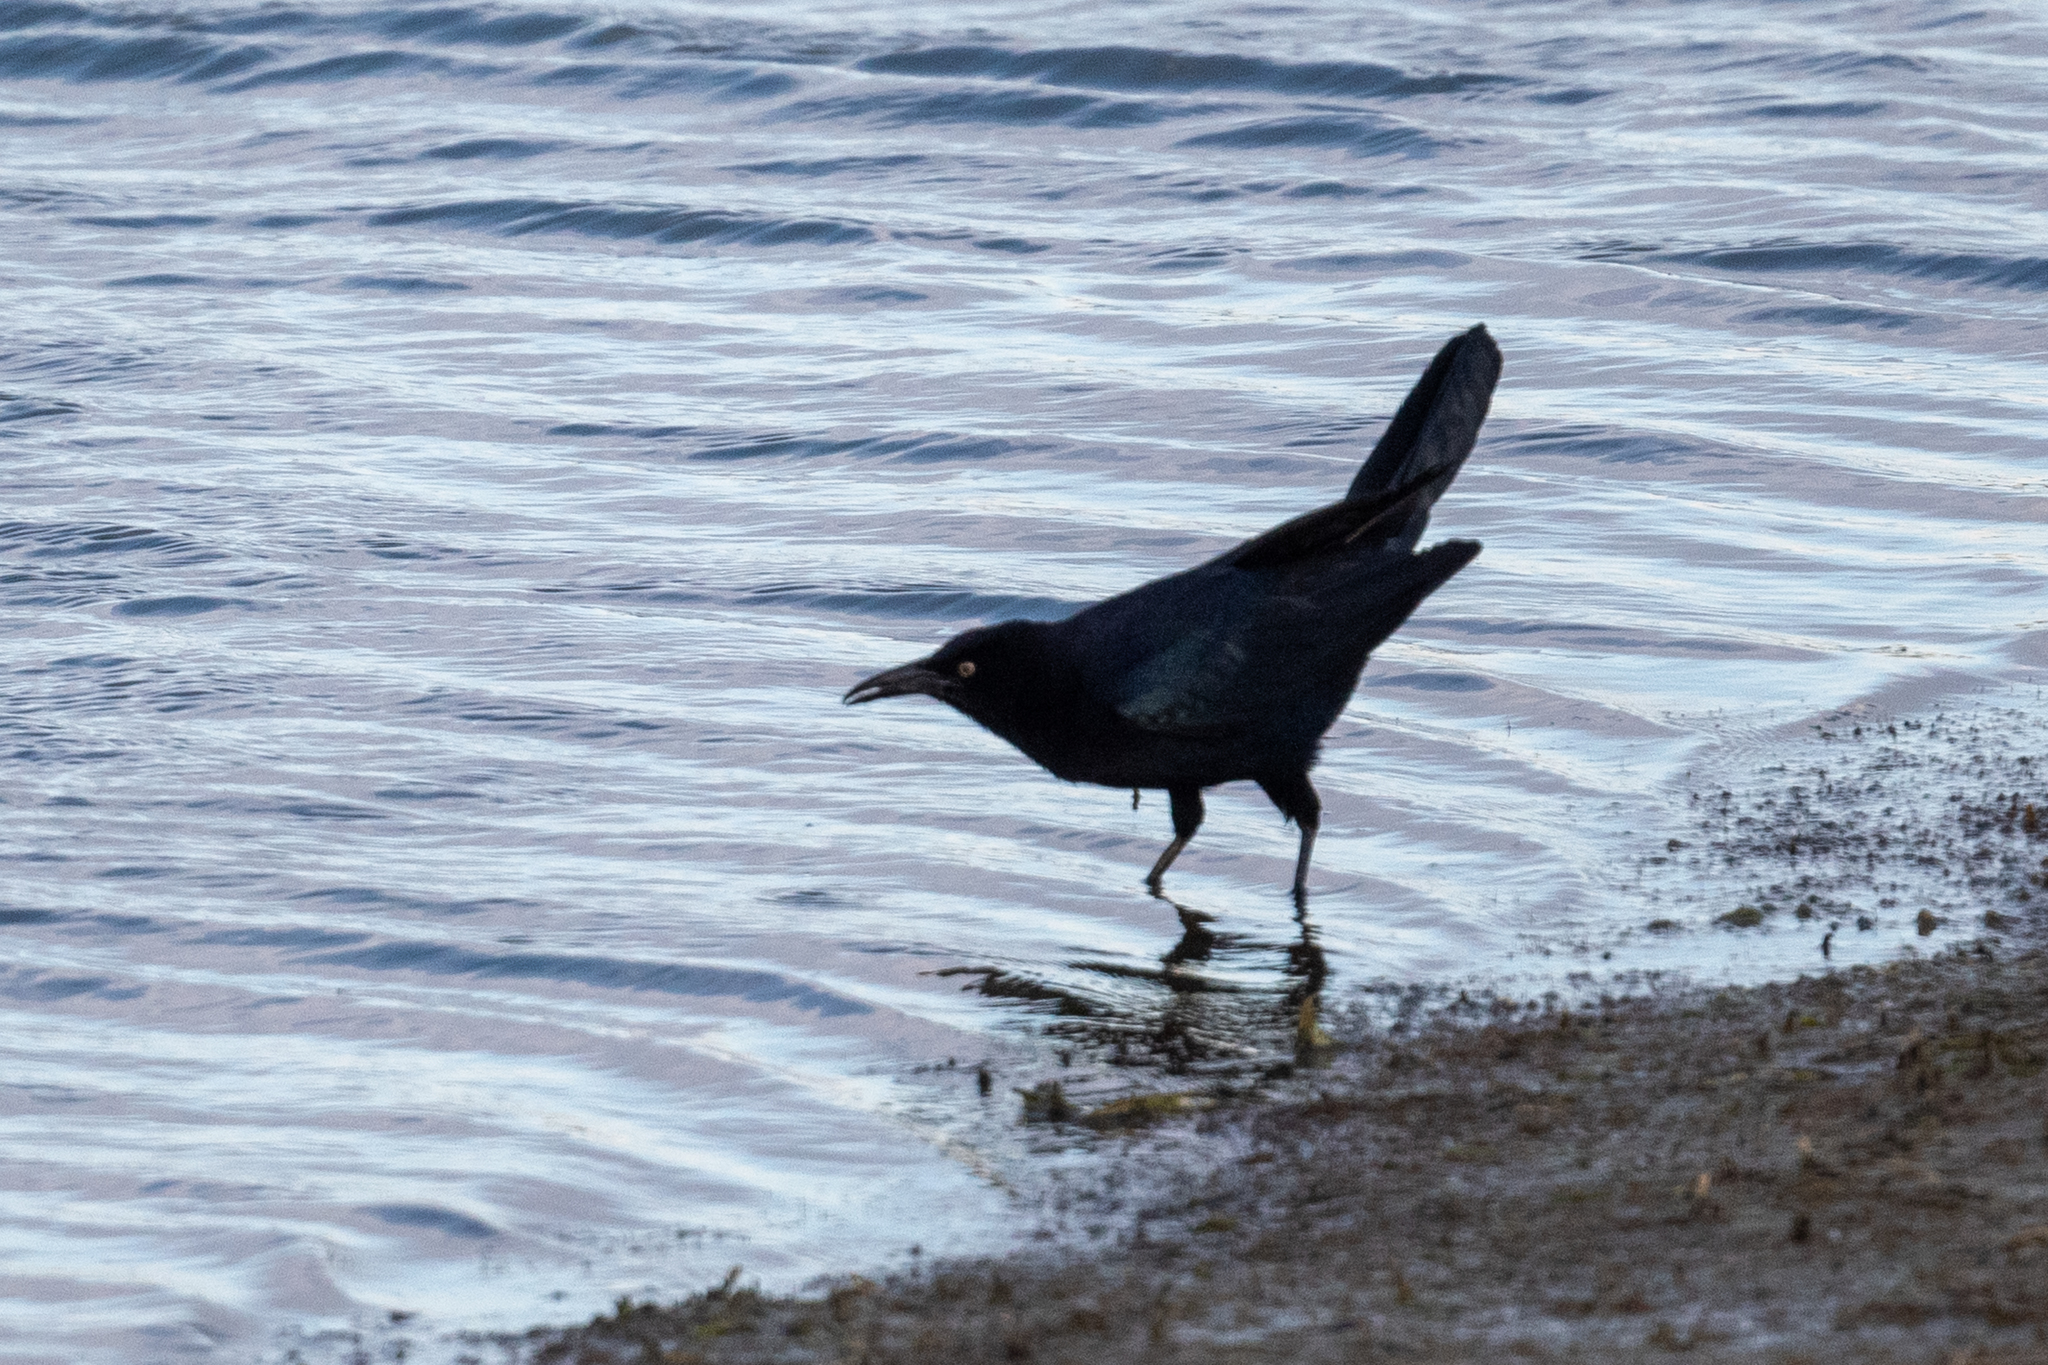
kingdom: Animalia
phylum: Chordata
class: Aves
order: Passeriformes
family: Icteridae
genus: Euphagus
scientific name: Euphagus cyanocephalus
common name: Brewer's blackbird
